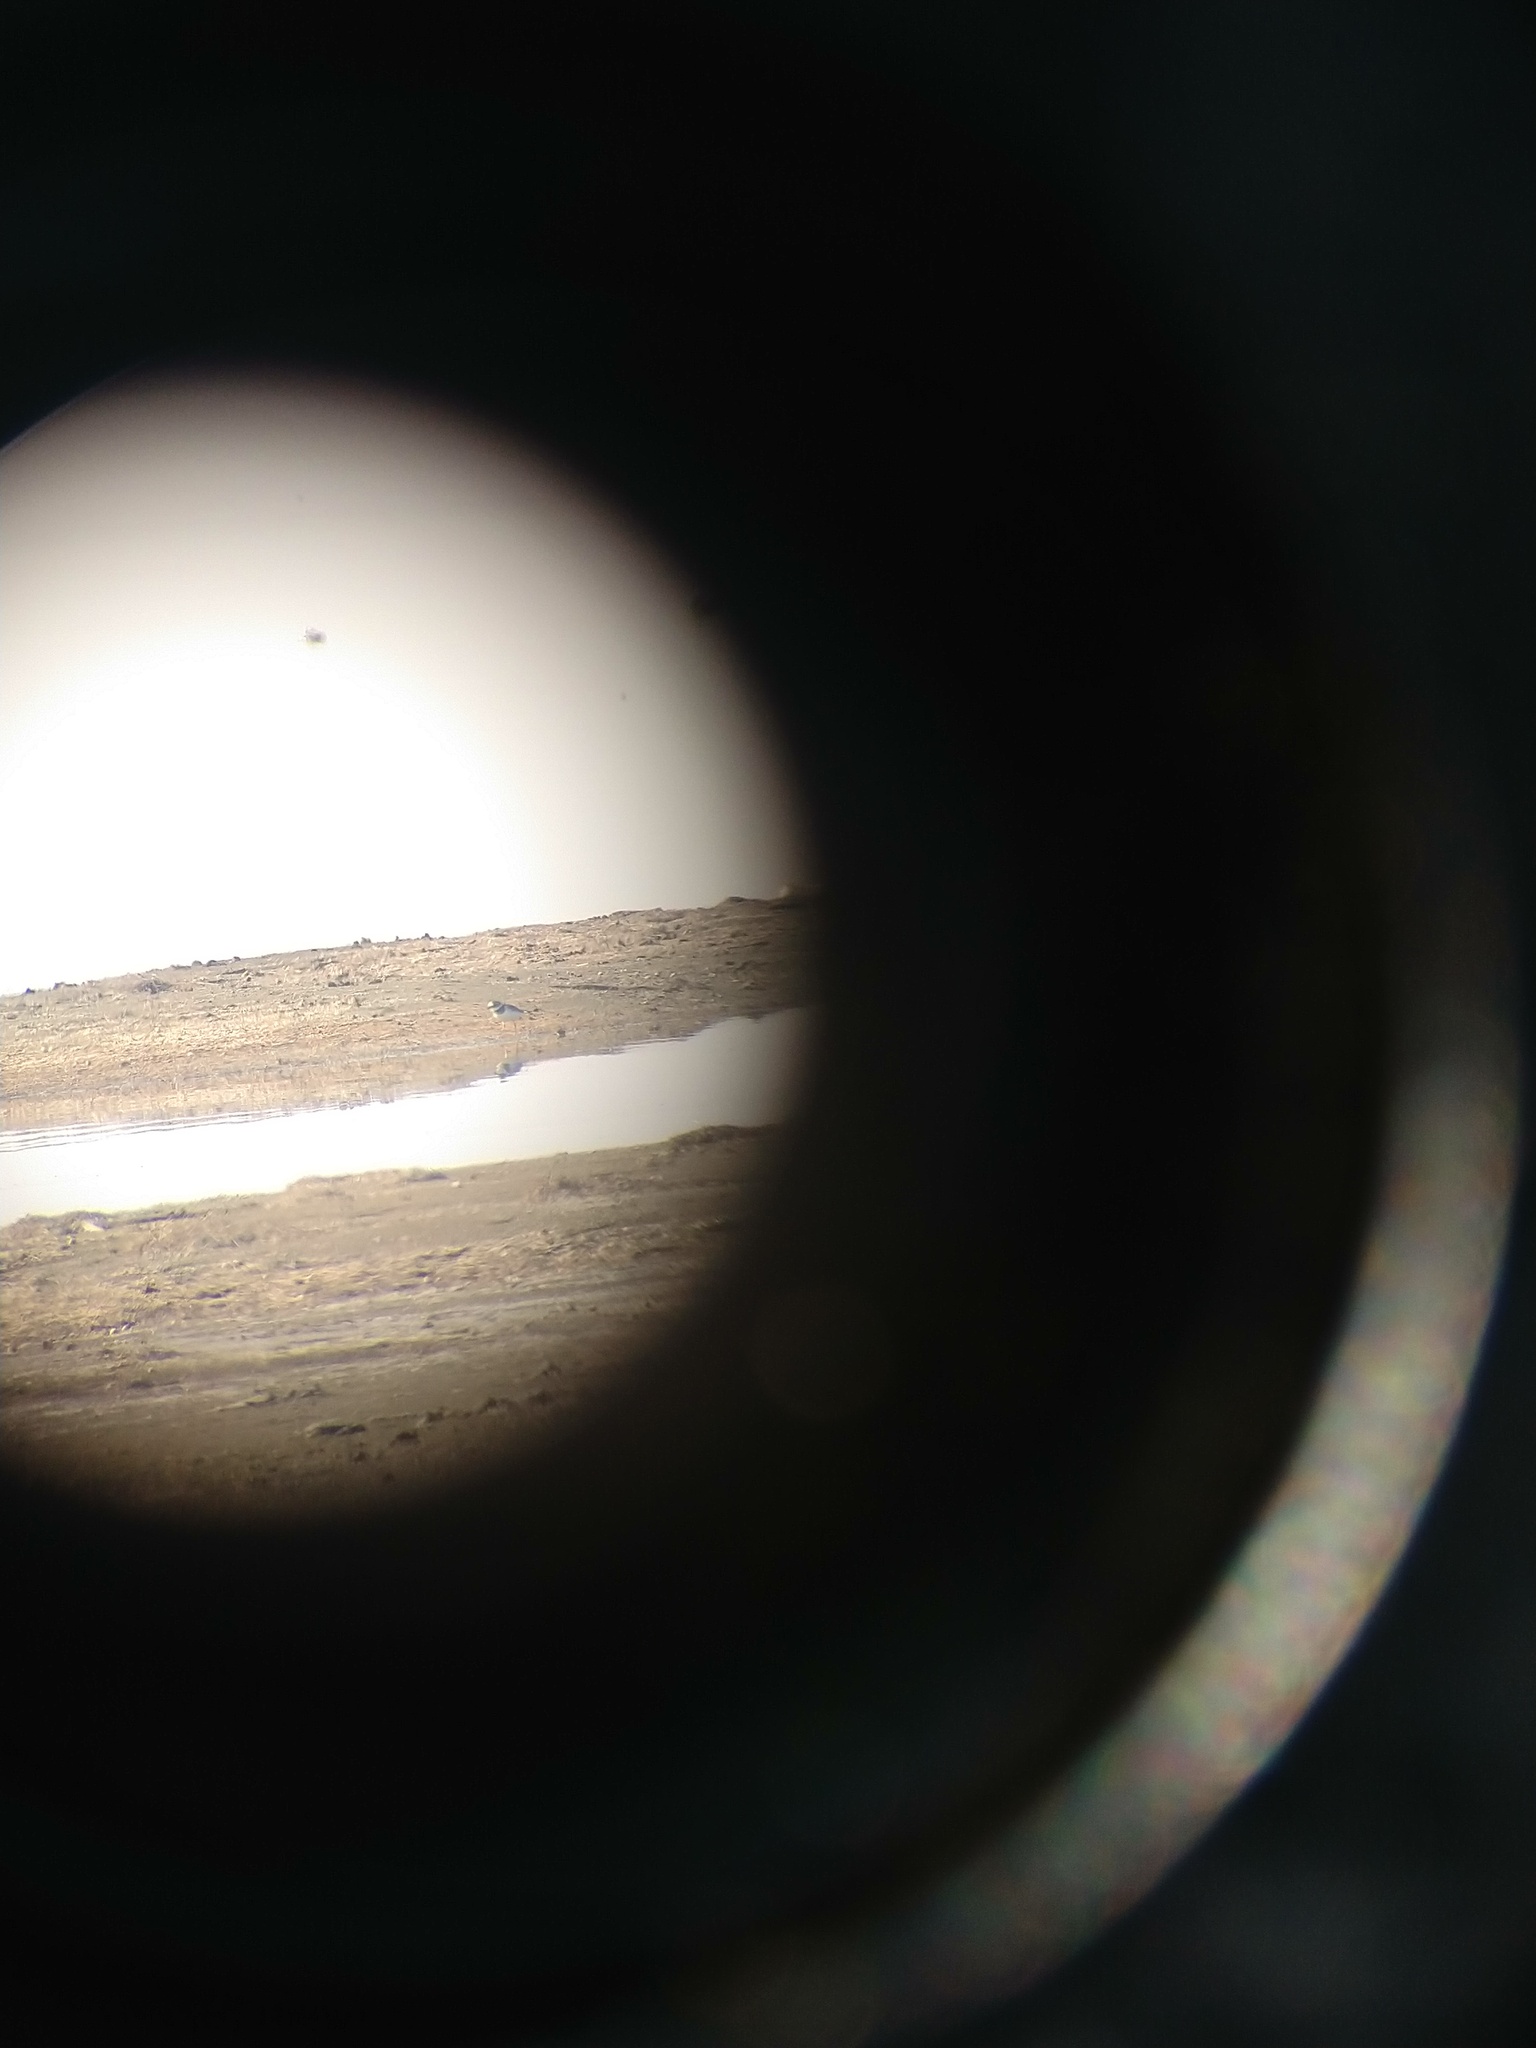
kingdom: Animalia
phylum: Chordata
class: Aves
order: Charadriiformes
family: Charadriidae
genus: Charadrius
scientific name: Charadrius hiaticula
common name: Common ringed plover
